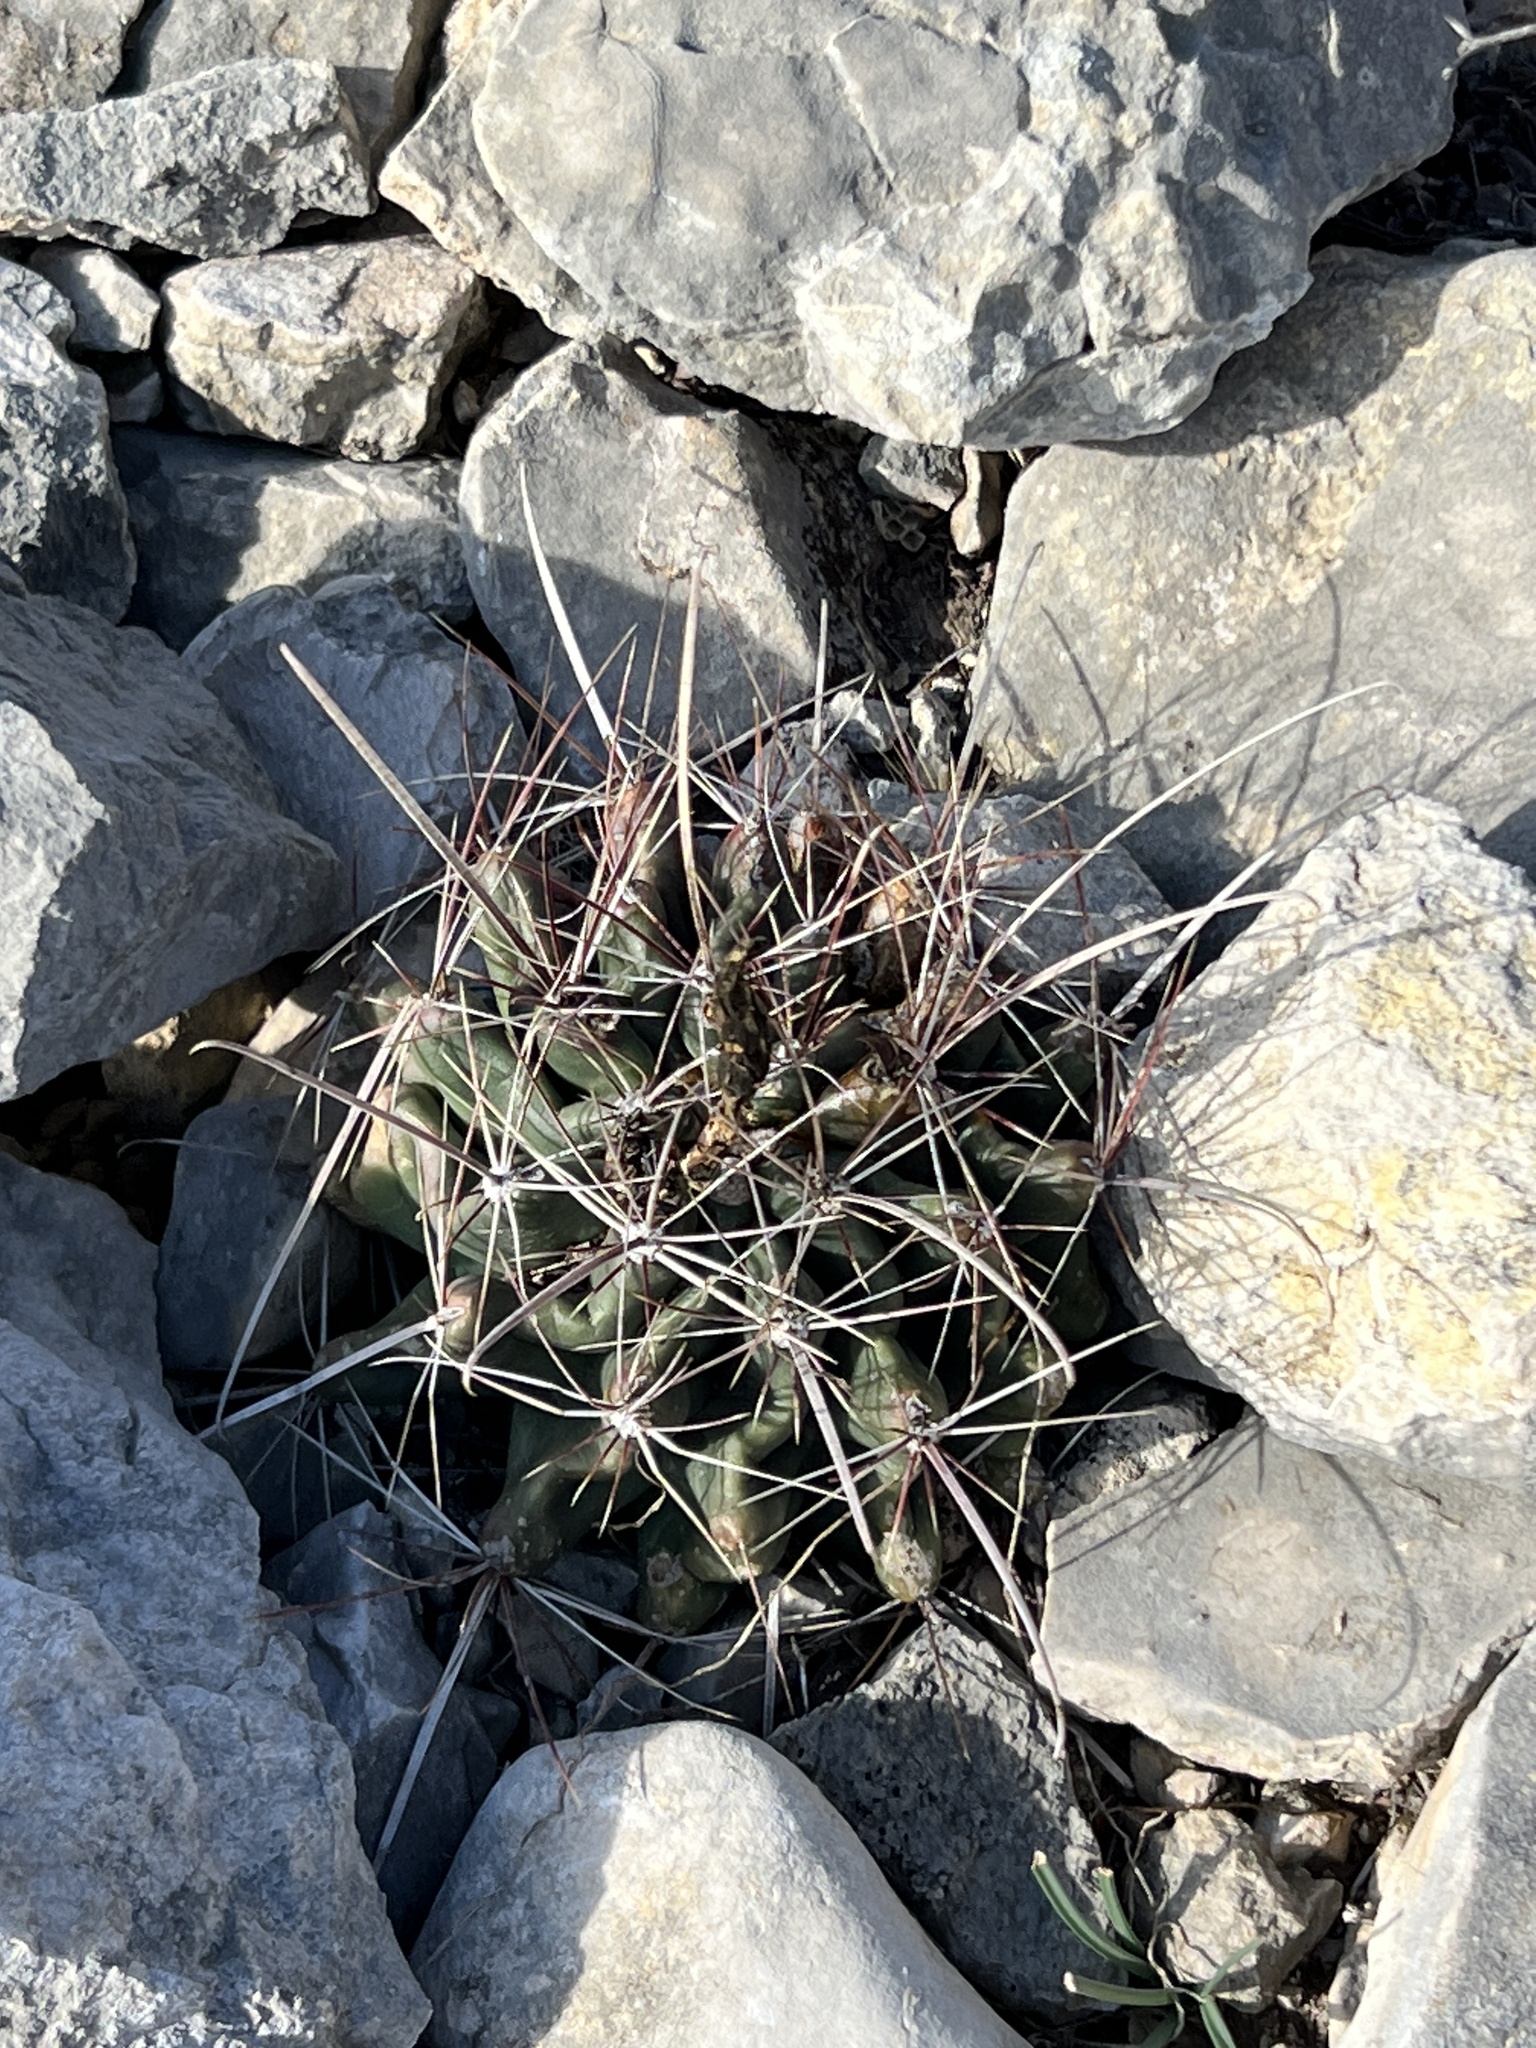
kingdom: Plantae
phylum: Tracheophyta
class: Magnoliopsida
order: Caryophyllales
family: Cactaceae
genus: Bisnaga
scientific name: Bisnaga hamatacantha
